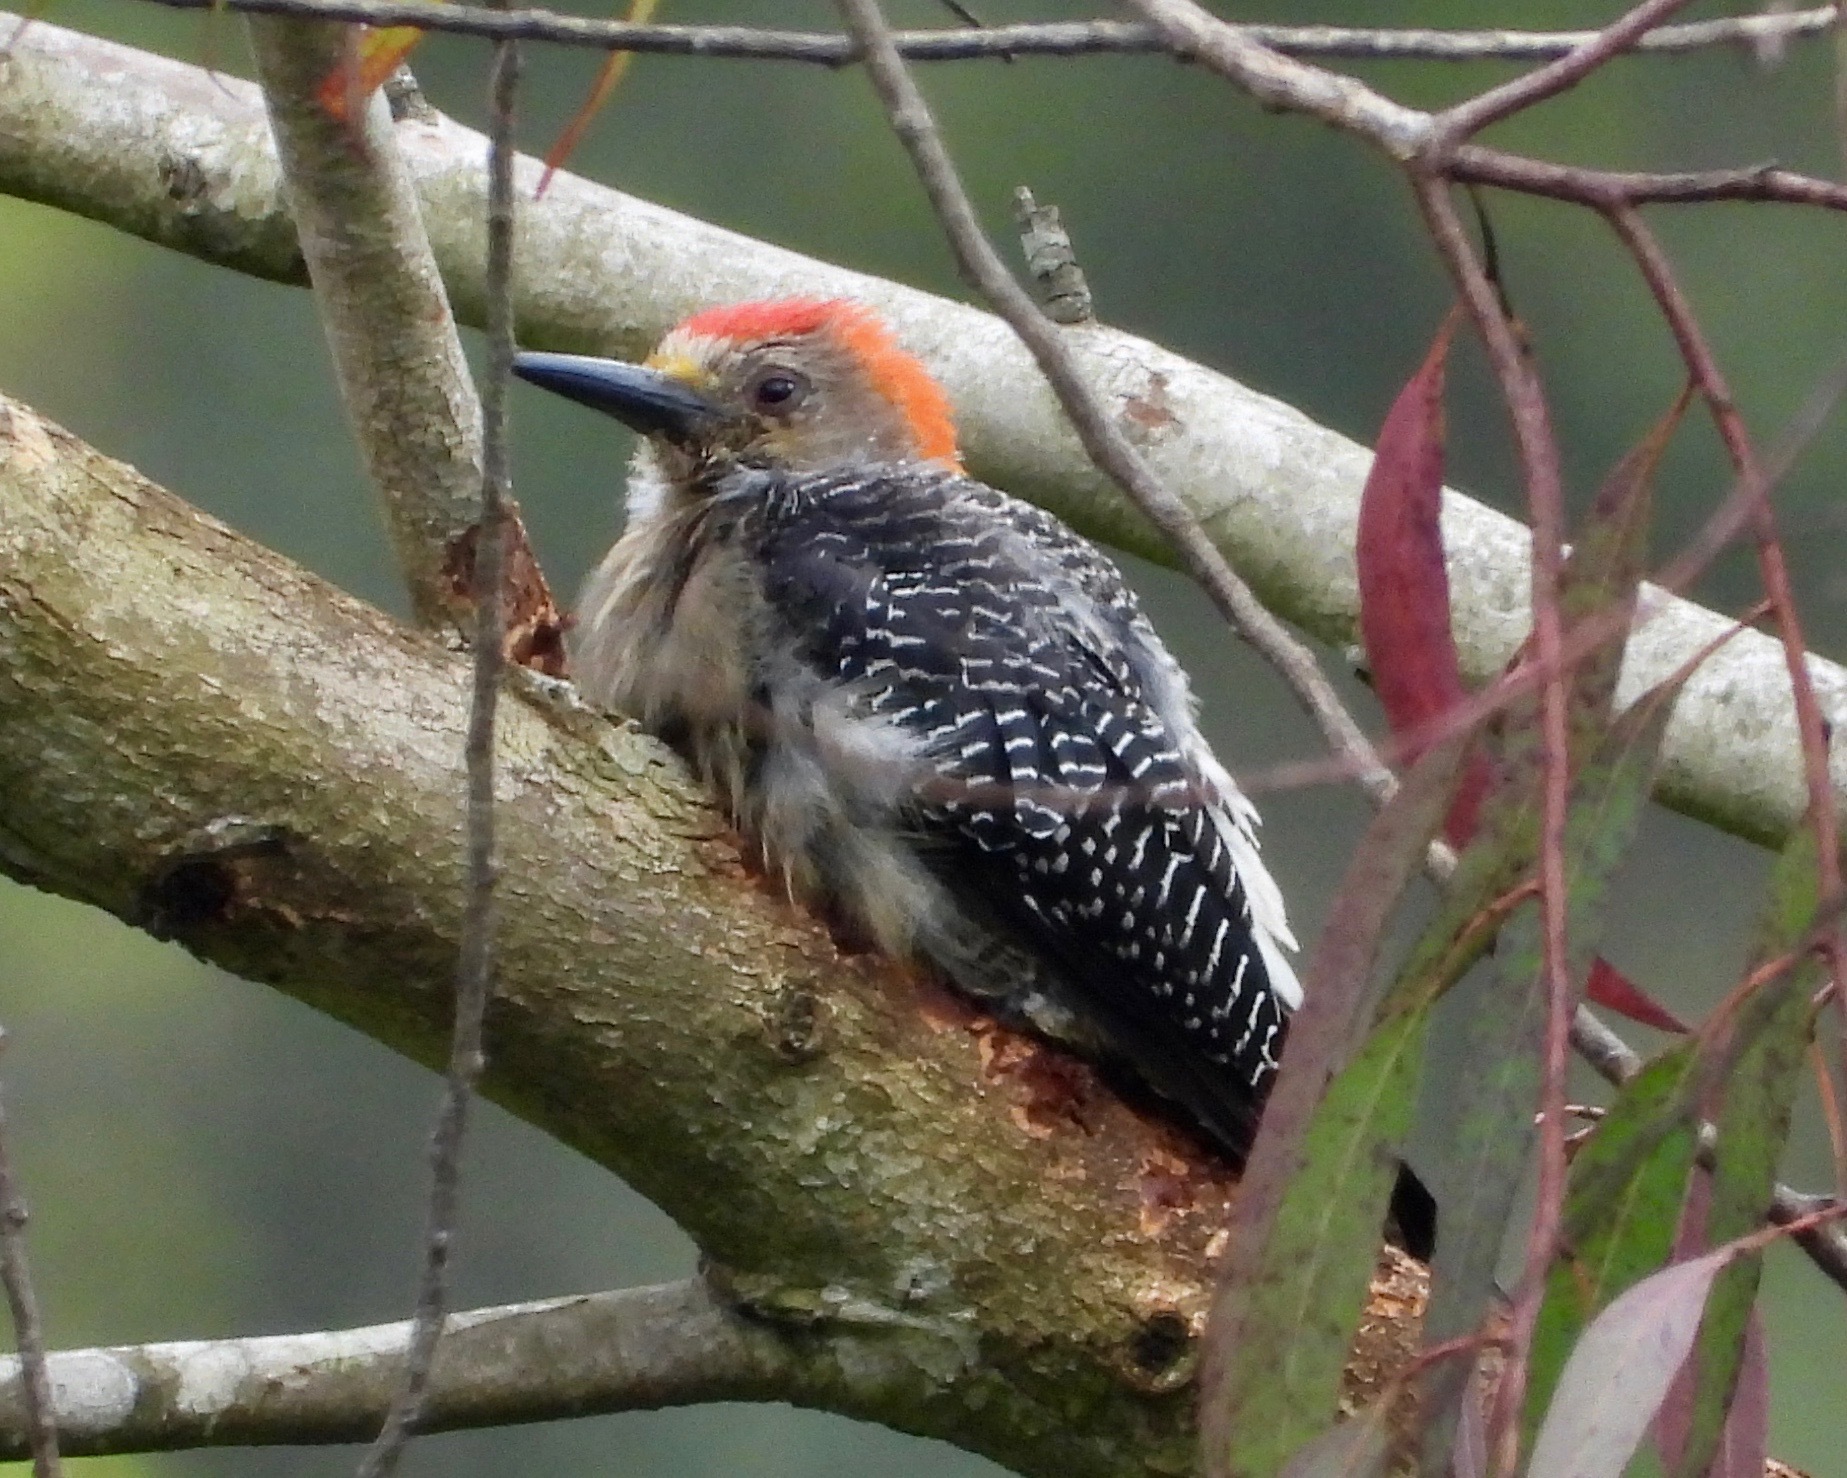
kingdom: Animalia
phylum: Chordata
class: Aves
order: Piciformes
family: Picidae
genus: Melanerpes
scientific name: Melanerpes aurifrons
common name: Golden-fronted woodpecker
